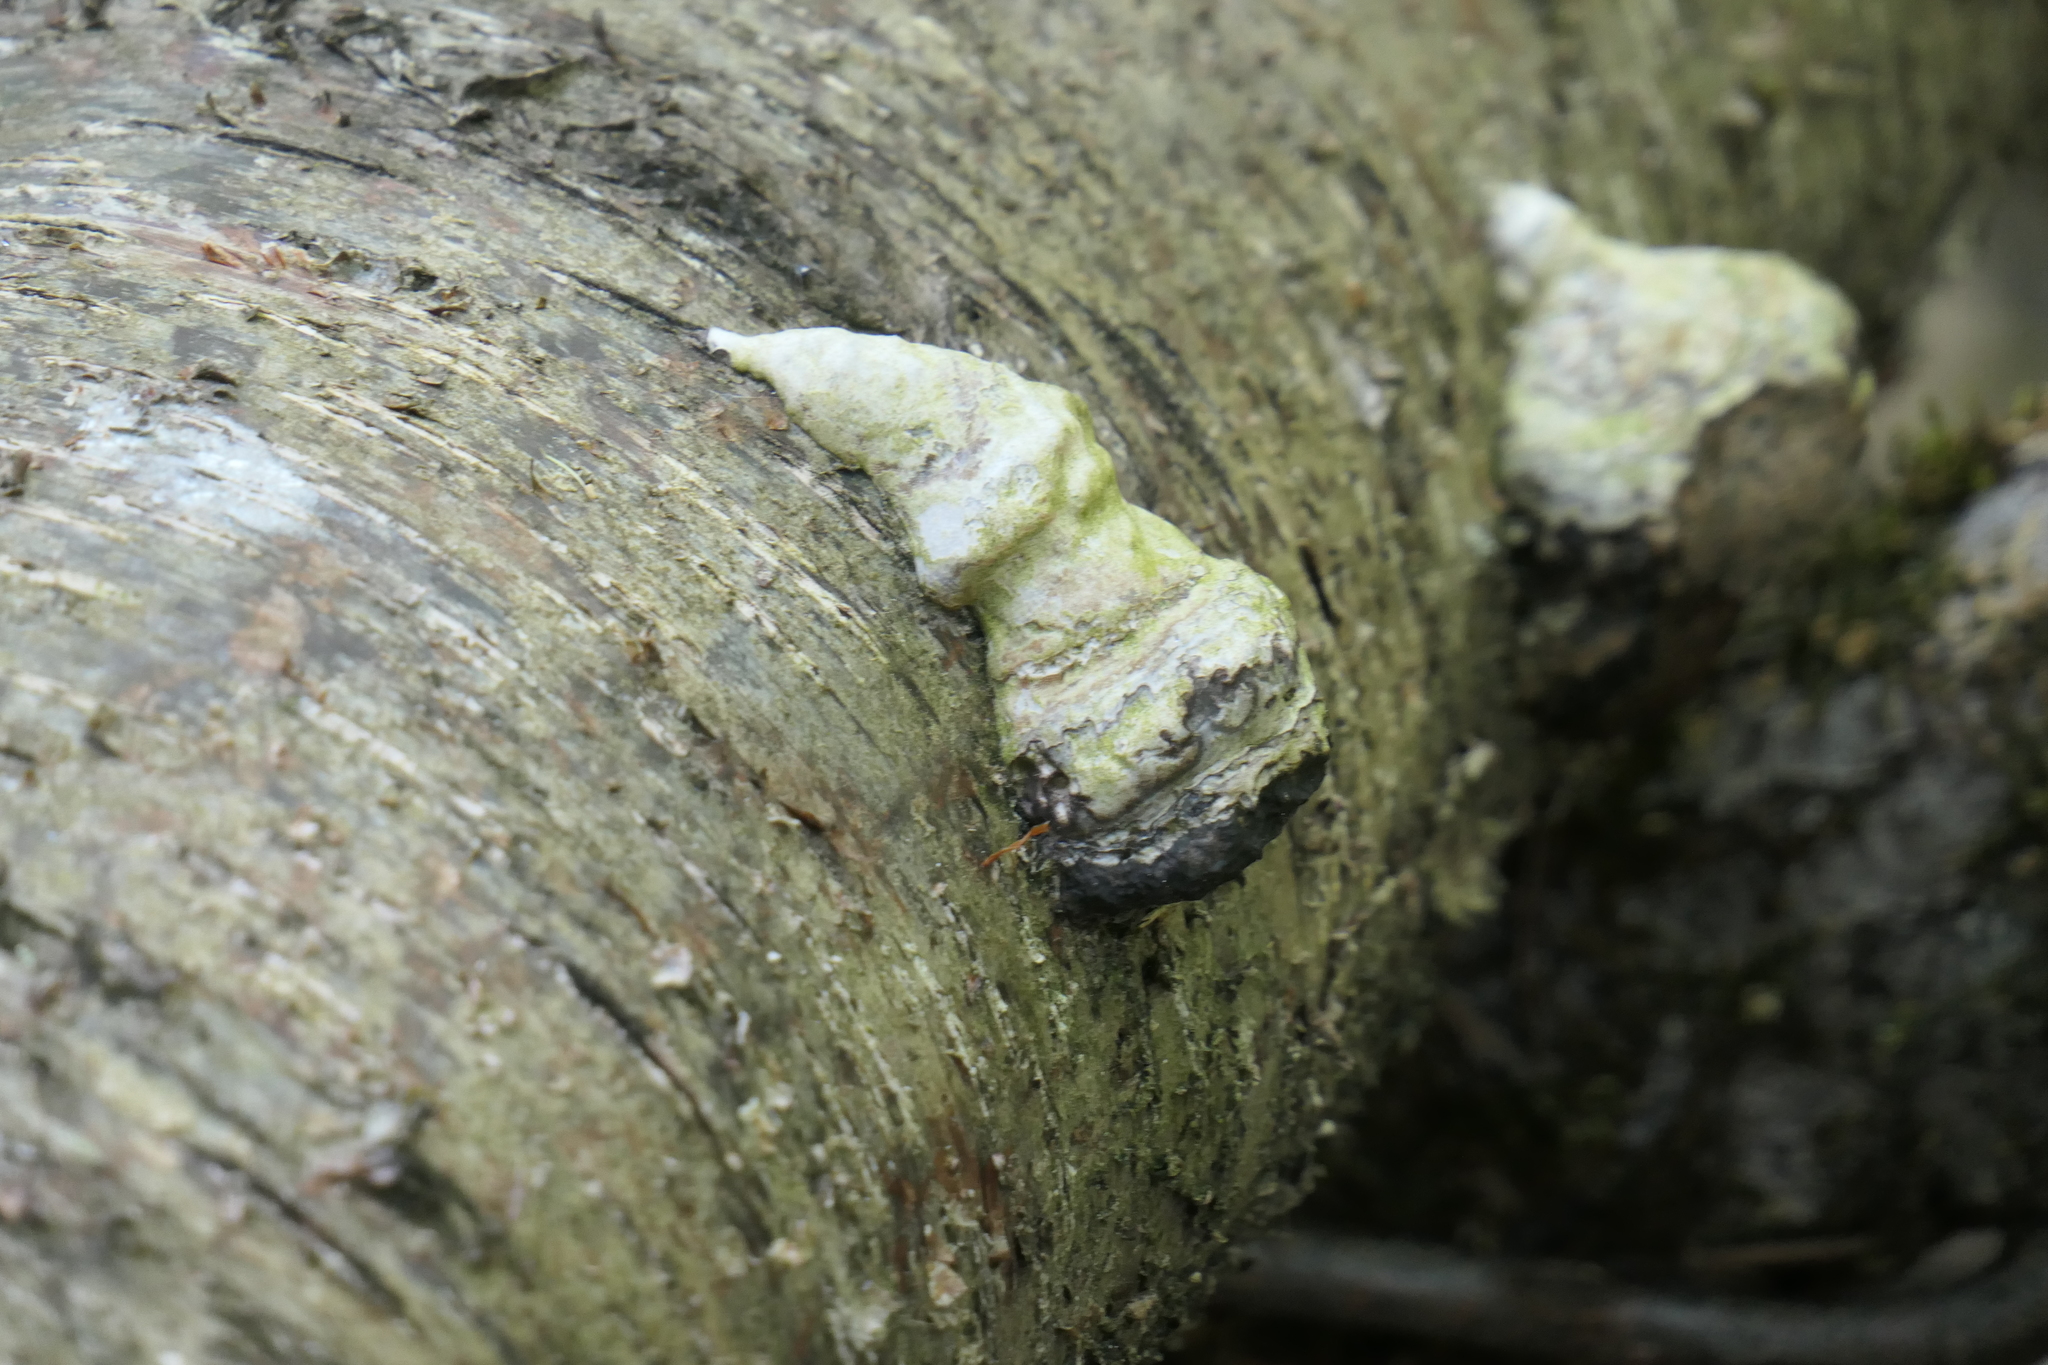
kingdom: Fungi
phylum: Basidiomycota
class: Agaricomycetes
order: Polyporales
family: Polyporaceae
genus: Fomes
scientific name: Fomes fomentarius
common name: Hoof fungus
